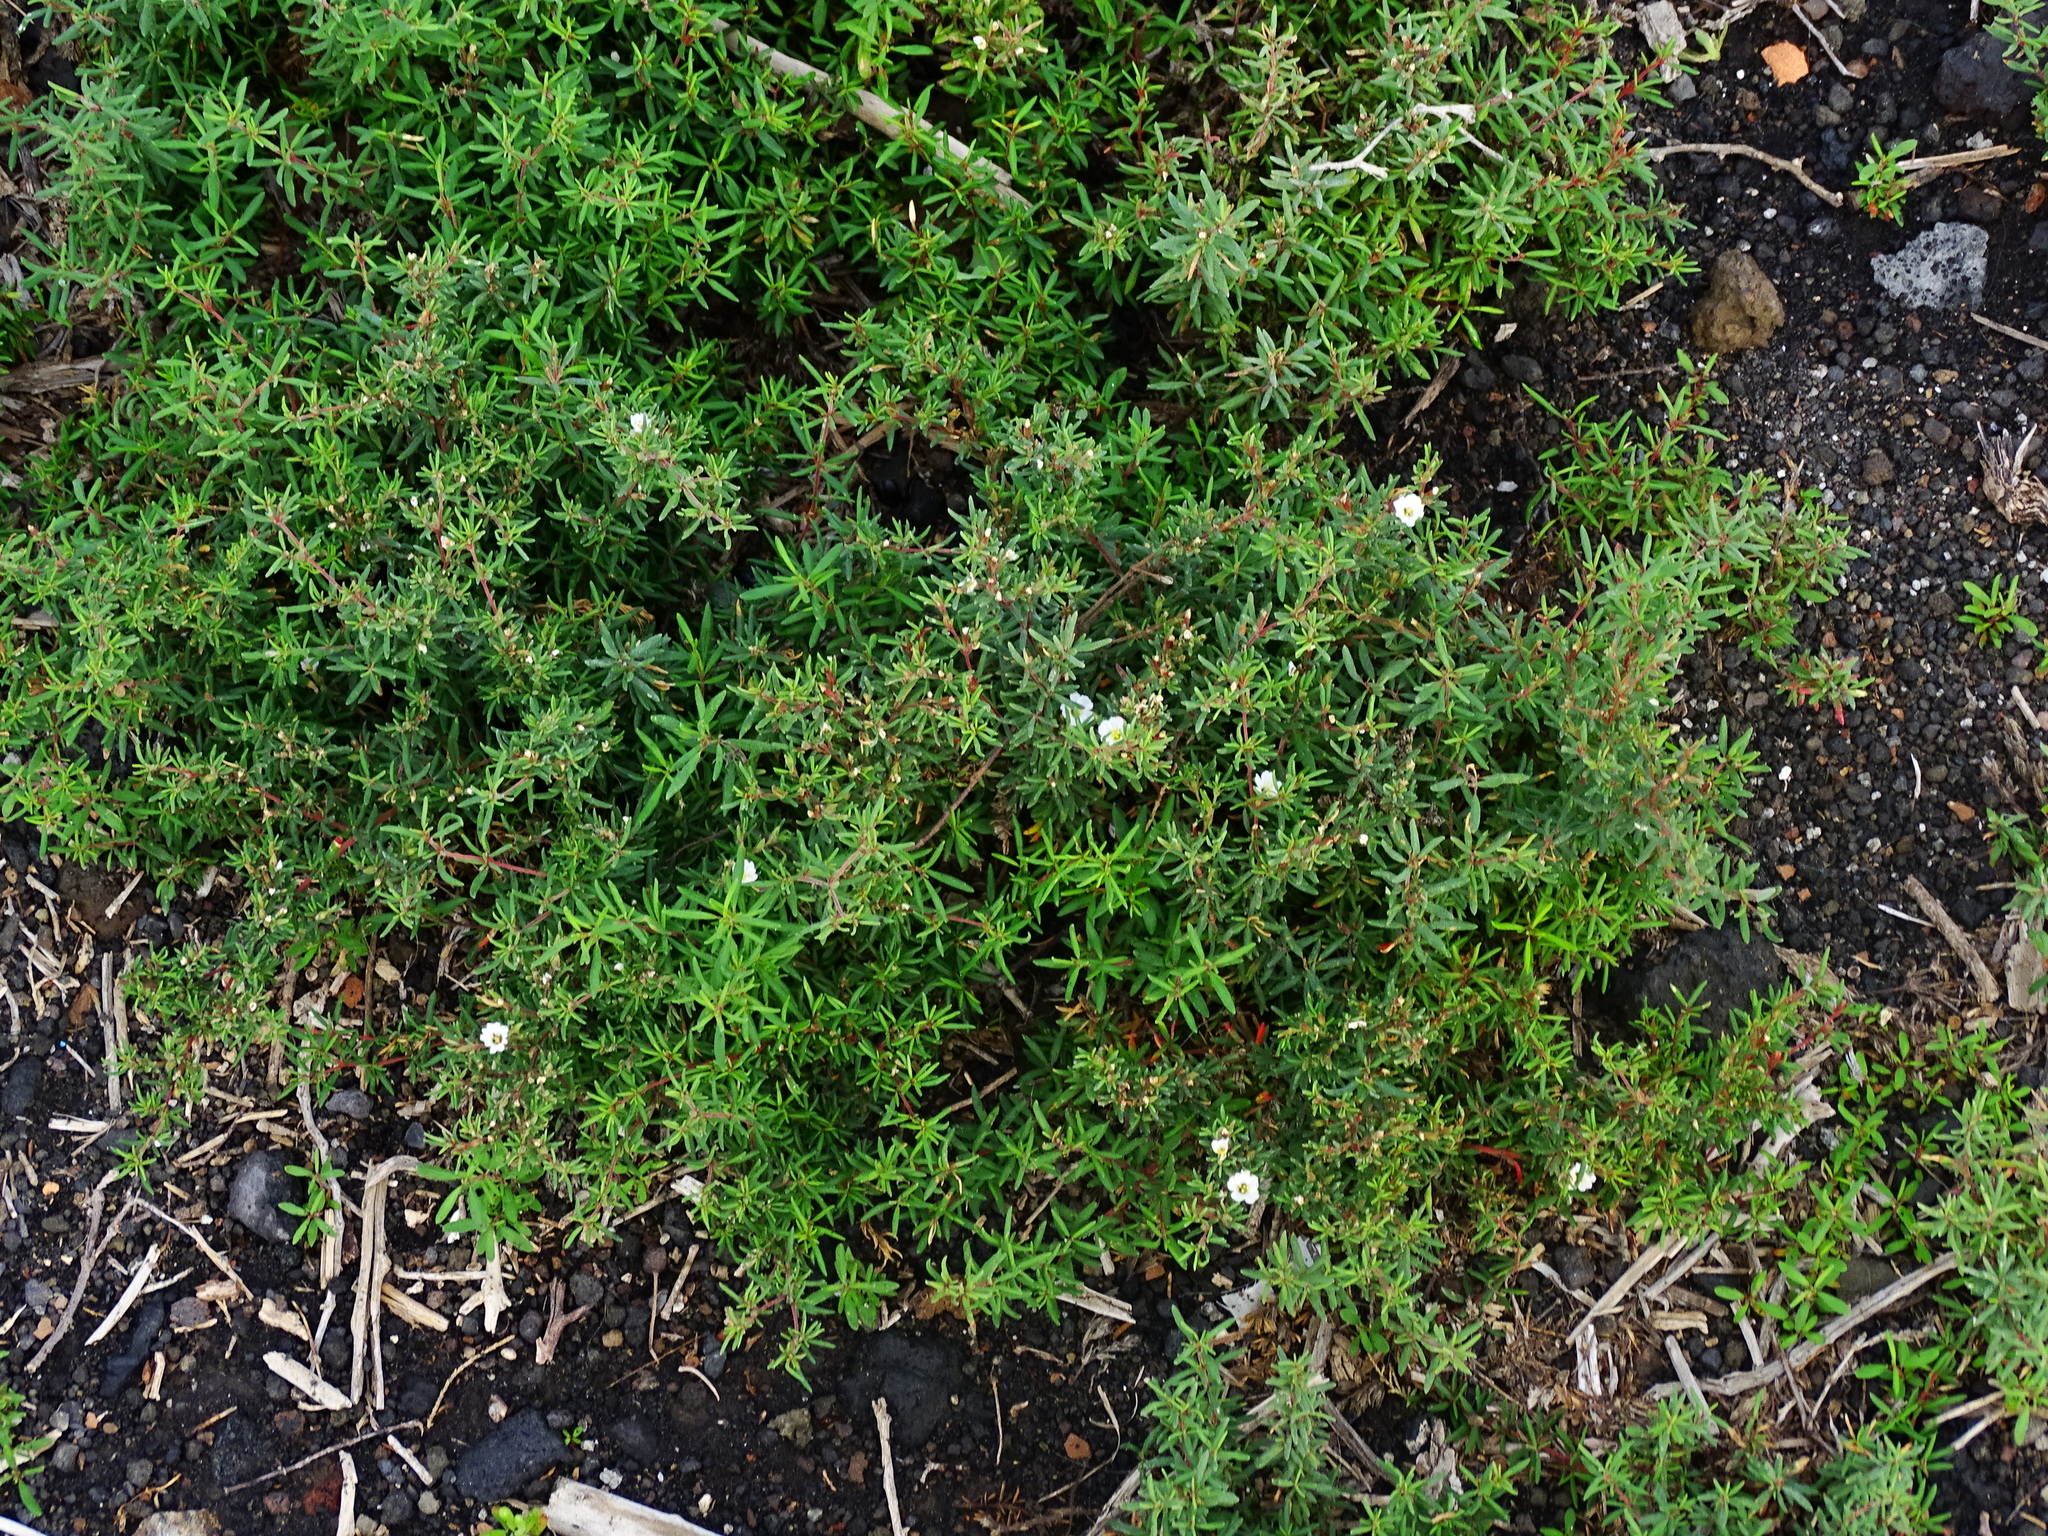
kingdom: Plantae
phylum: Tracheophyta
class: Magnoliopsida
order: Caryophyllales
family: Frankeniaceae
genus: Frankenia
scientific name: Frankenia ericifolia
